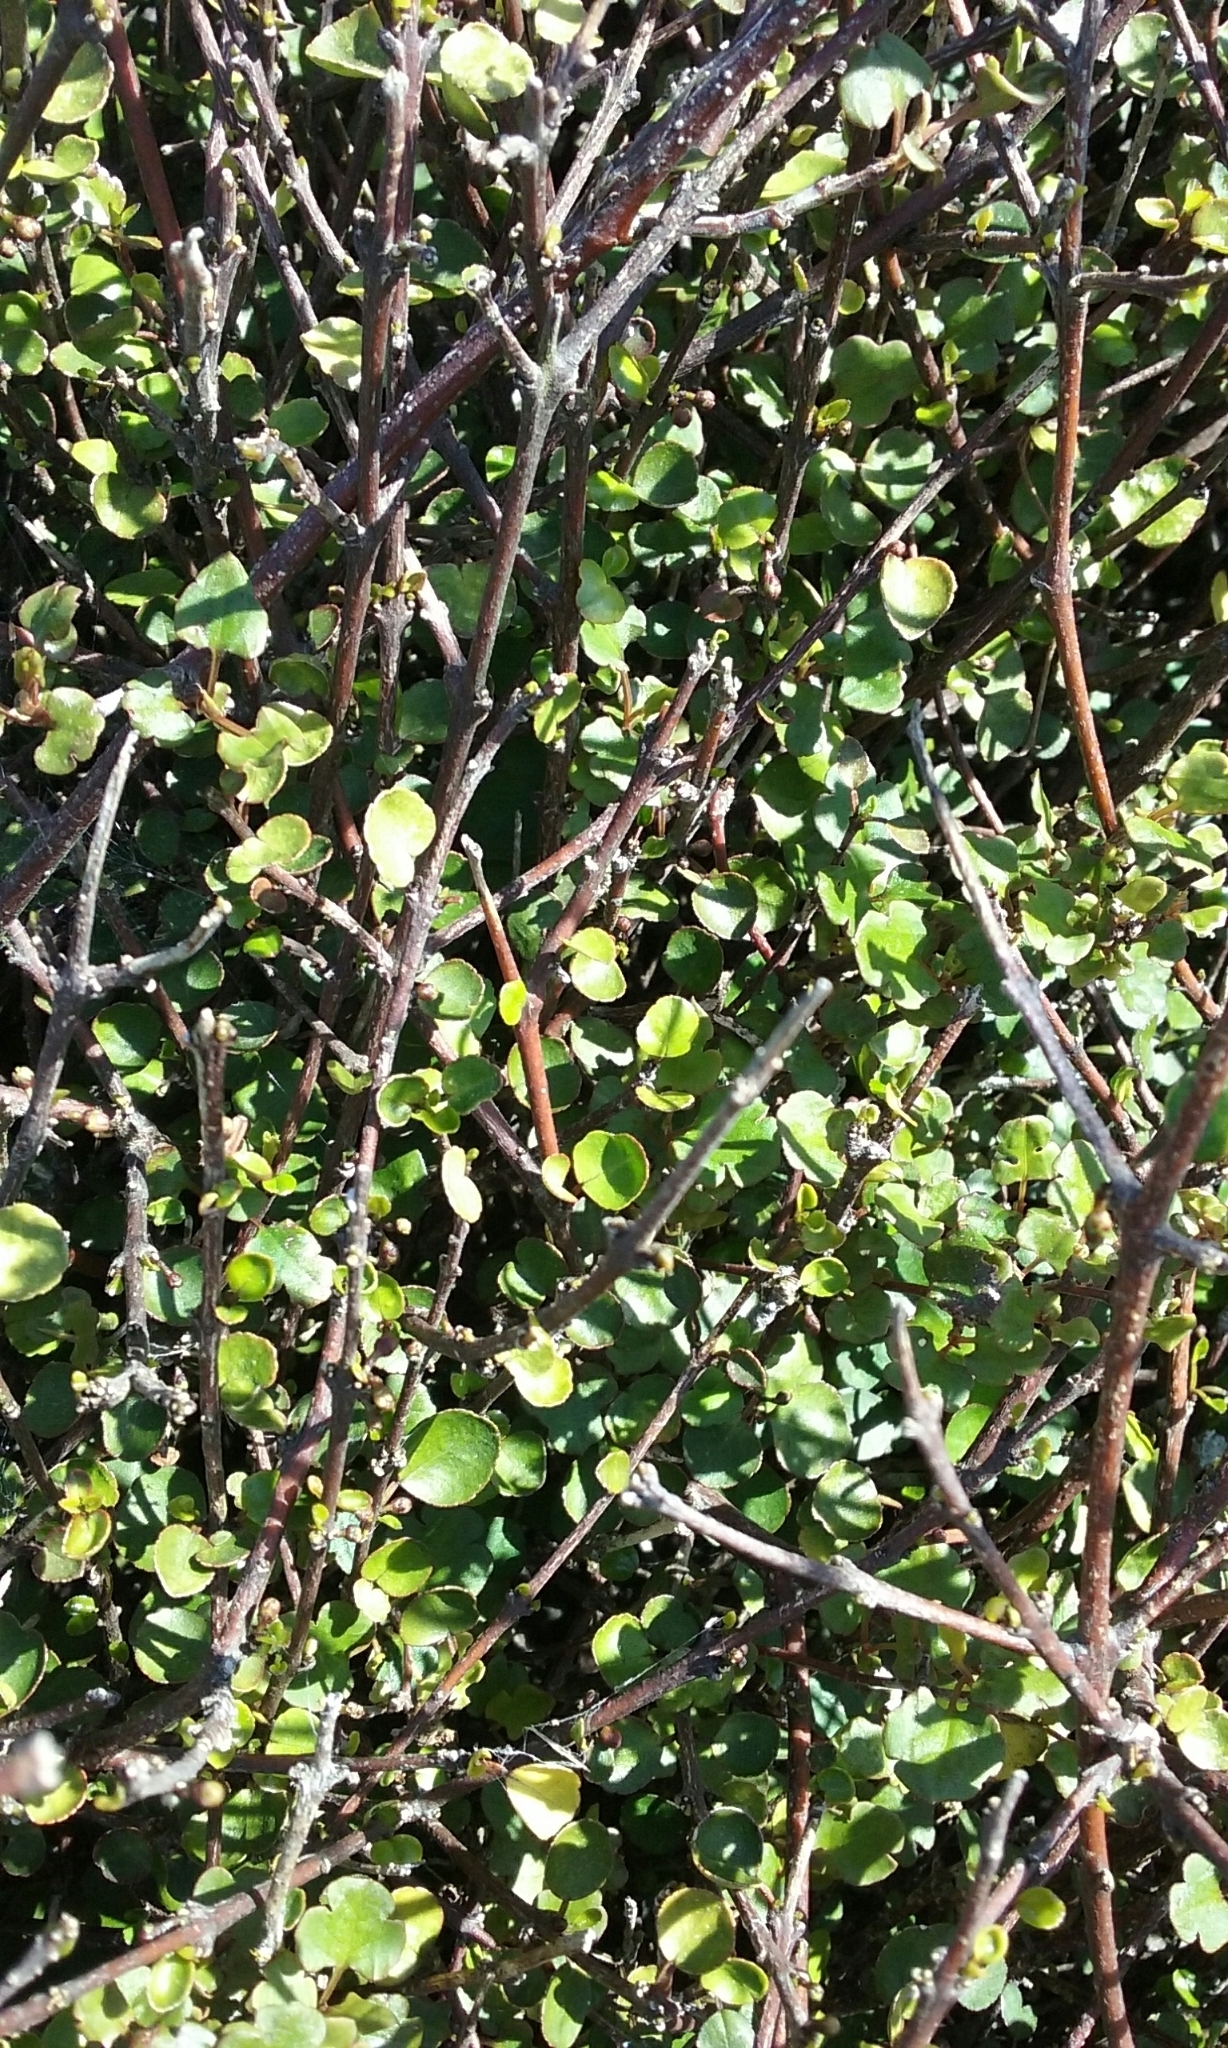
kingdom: Plantae
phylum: Tracheophyta
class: Magnoliopsida
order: Sapindales
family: Rutaceae
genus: Melicope
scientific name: Melicope simplex
